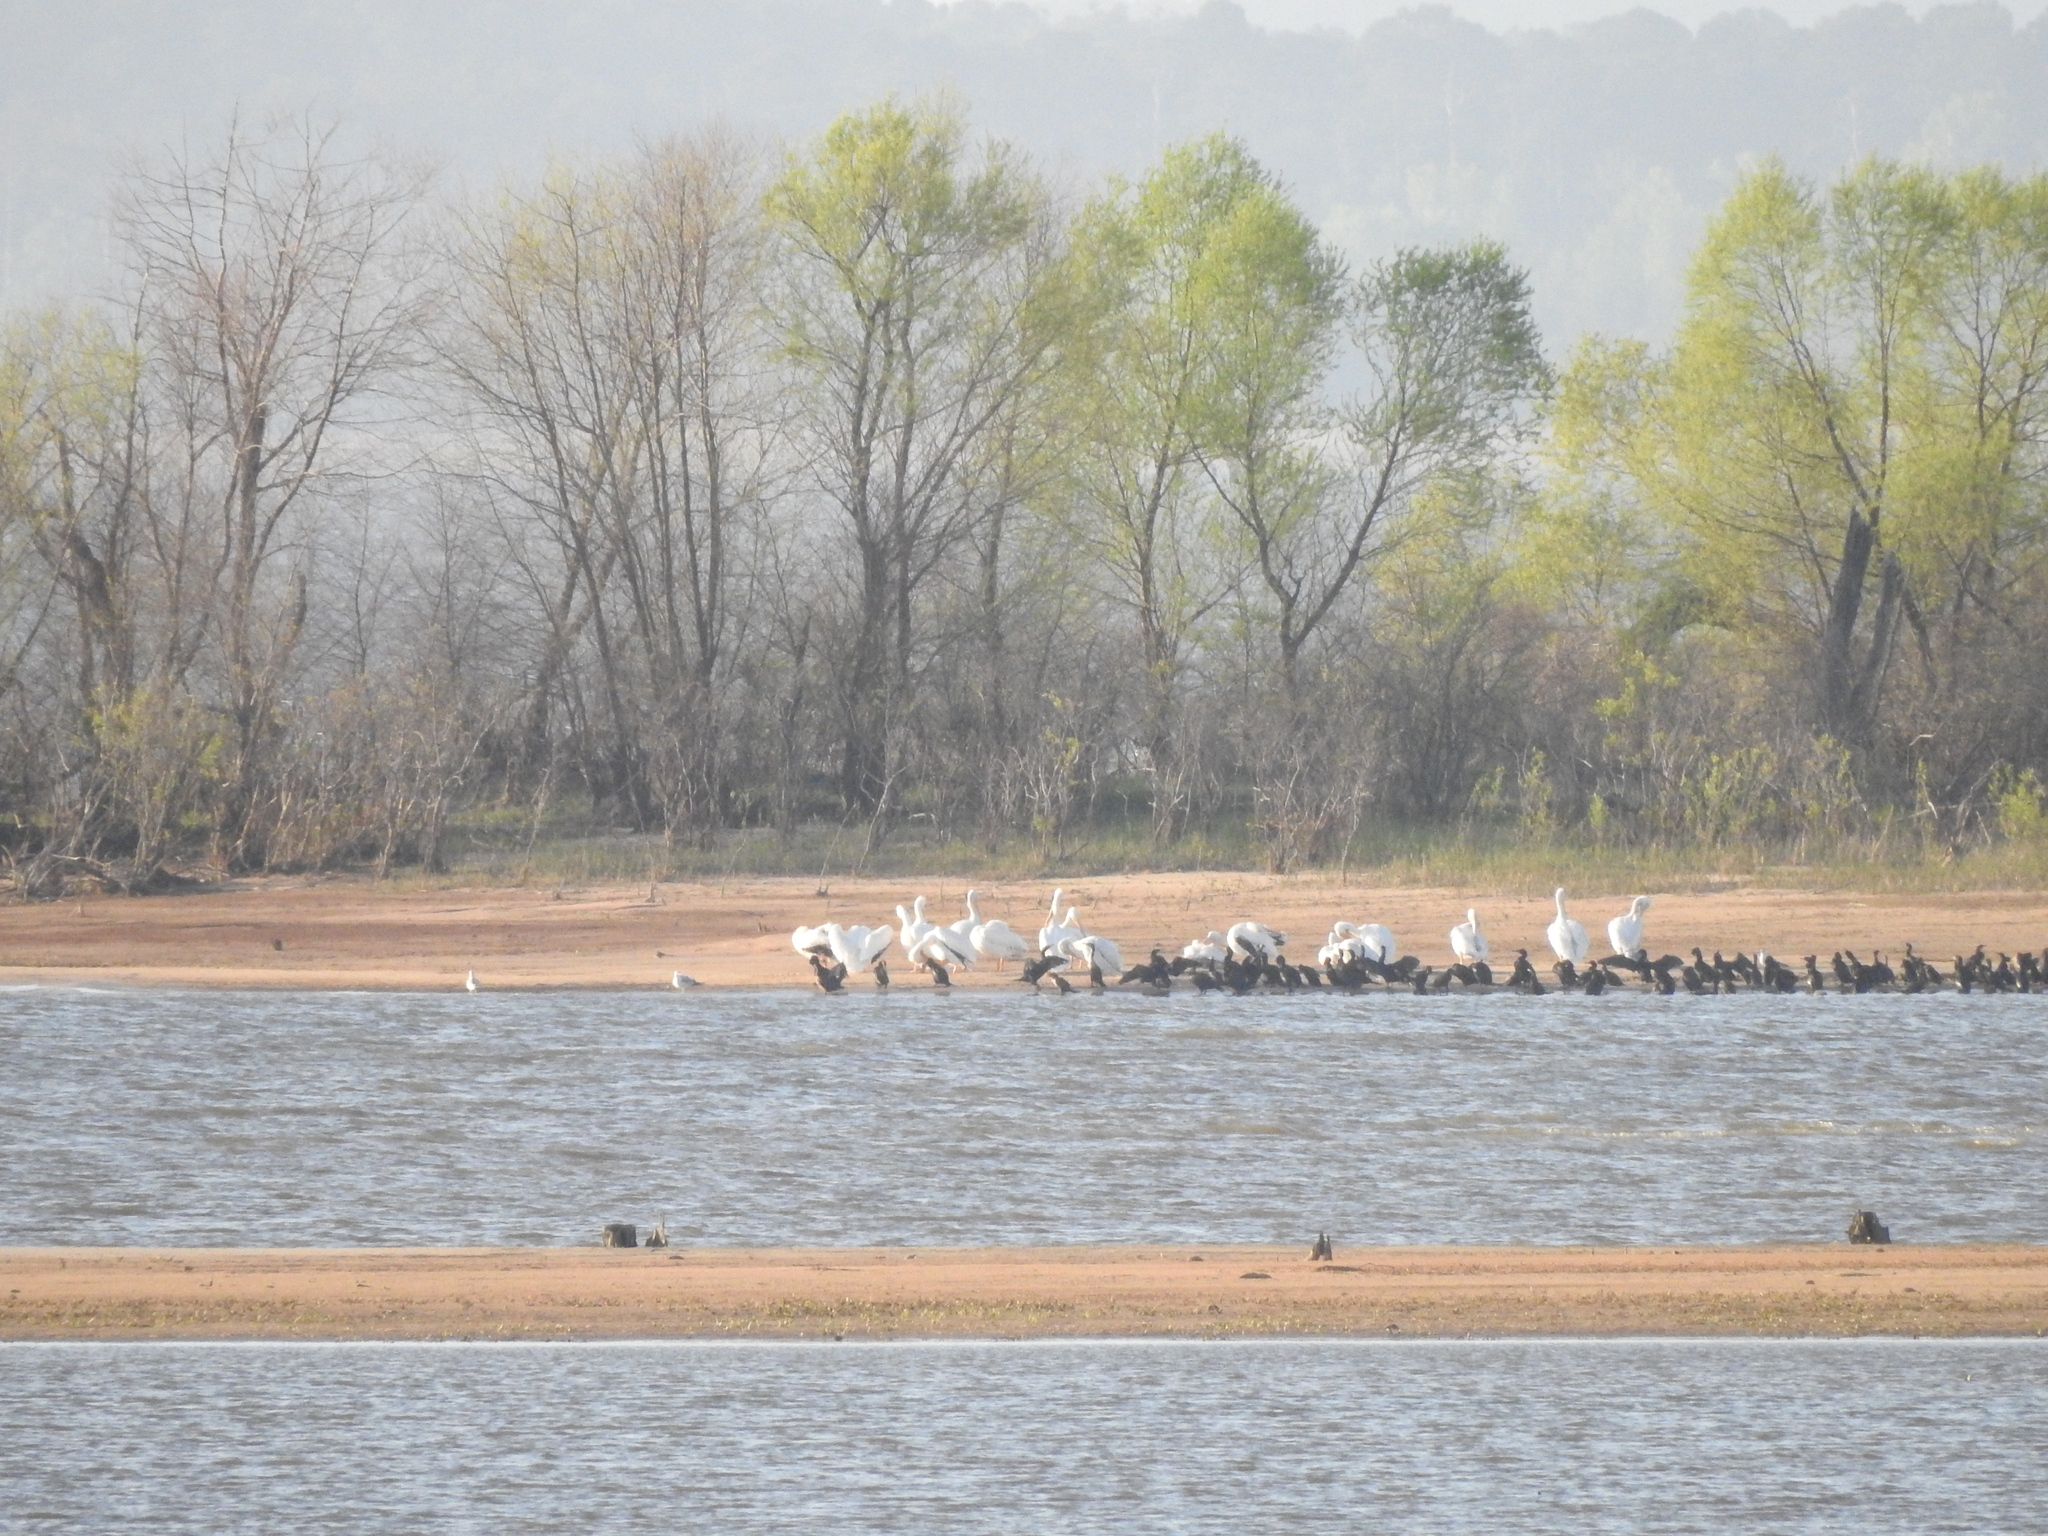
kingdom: Animalia
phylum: Chordata
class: Aves
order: Pelecaniformes
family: Pelecanidae
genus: Pelecanus
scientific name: Pelecanus erythrorhynchos
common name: American white pelican
